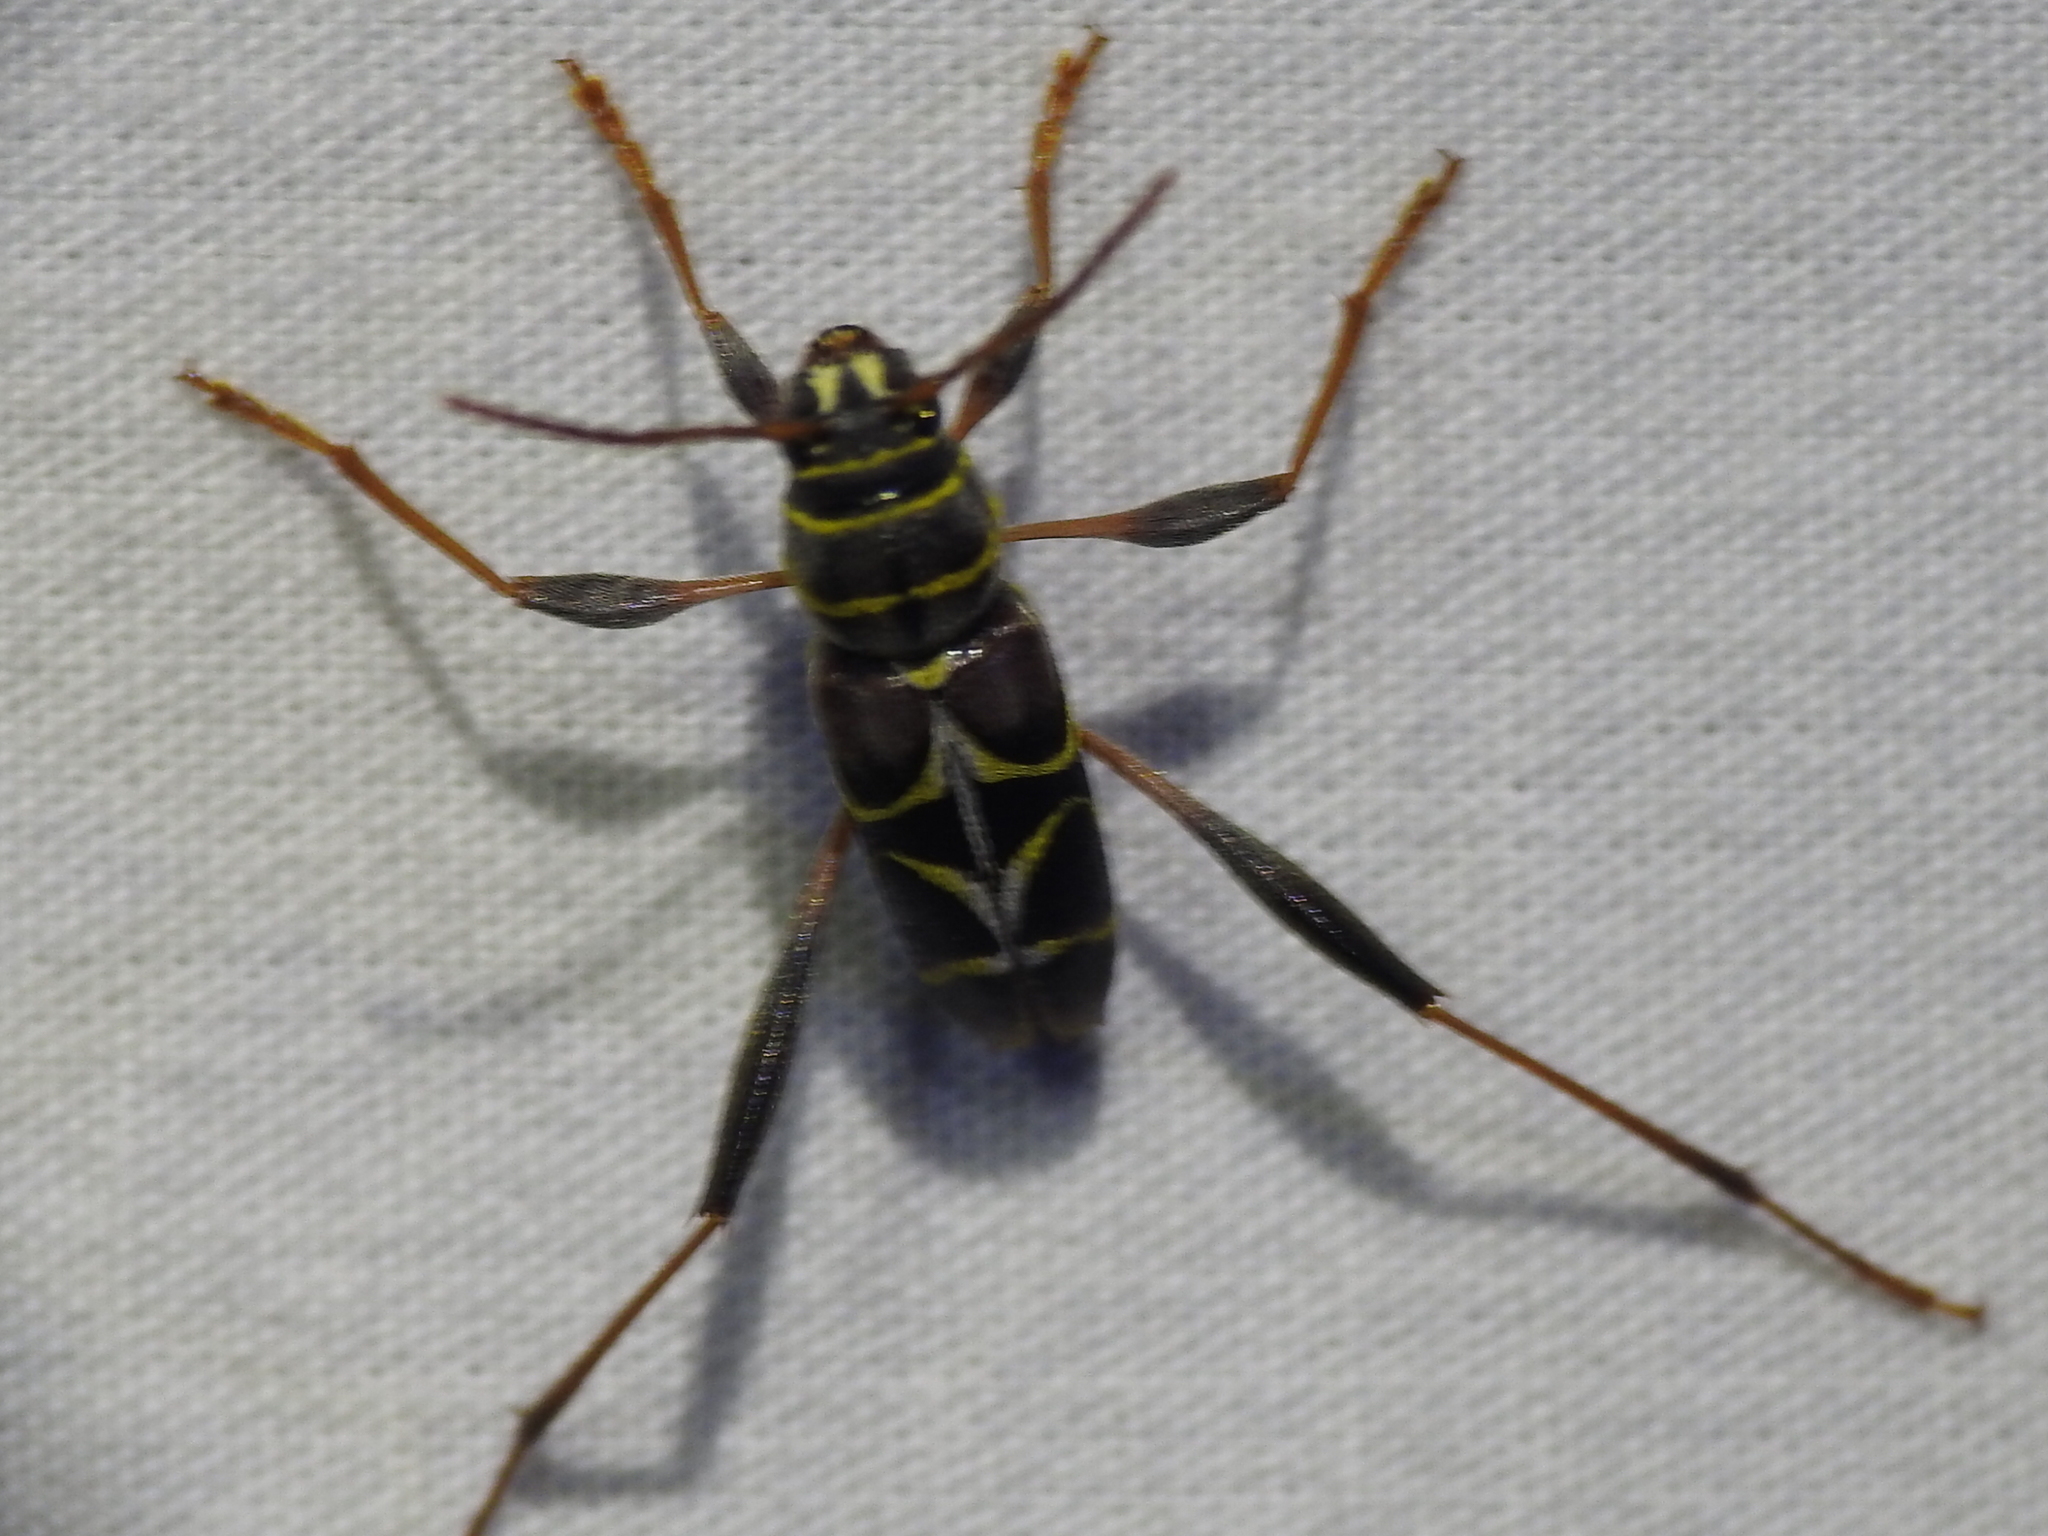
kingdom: Animalia
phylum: Arthropoda
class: Insecta
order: Coleoptera
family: Cerambycidae
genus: Neoclytus
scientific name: Neoclytus scutellaris
